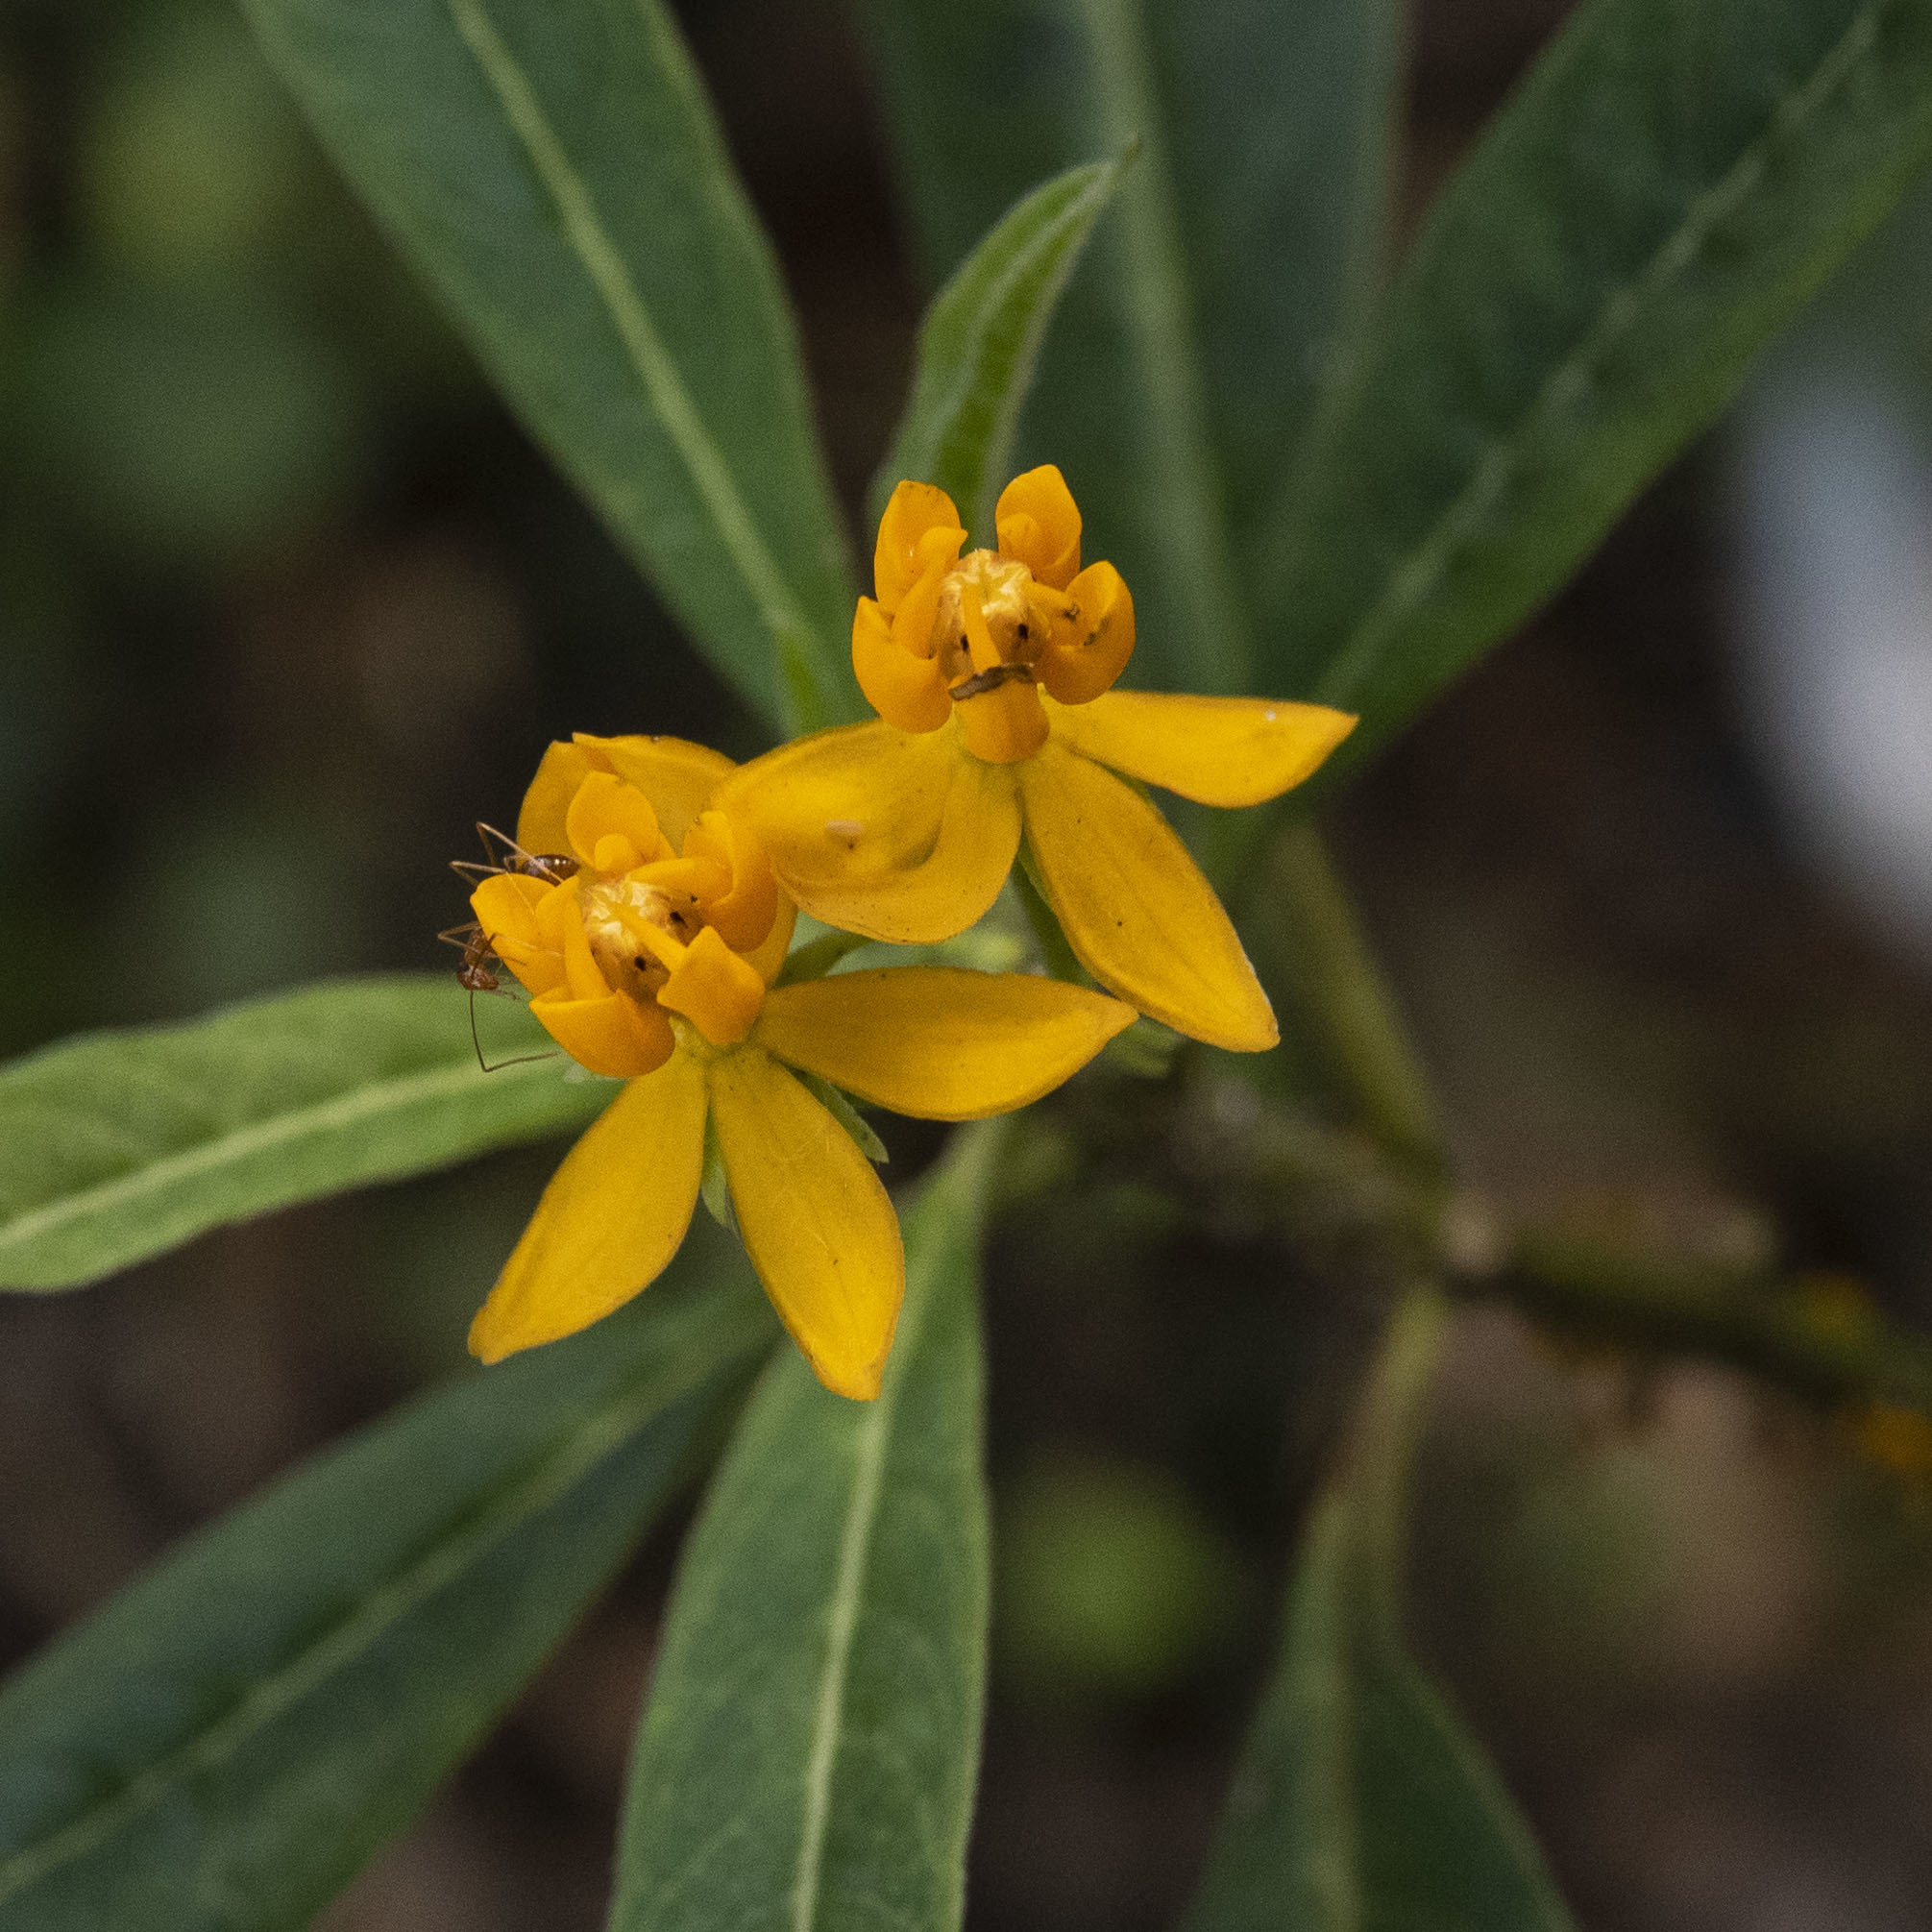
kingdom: Plantae
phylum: Tracheophyta
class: Magnoliopsida
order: Gentianales
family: Apocynaceae
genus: Asclepias
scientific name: Asclepias curassavica
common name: Bloodflower
